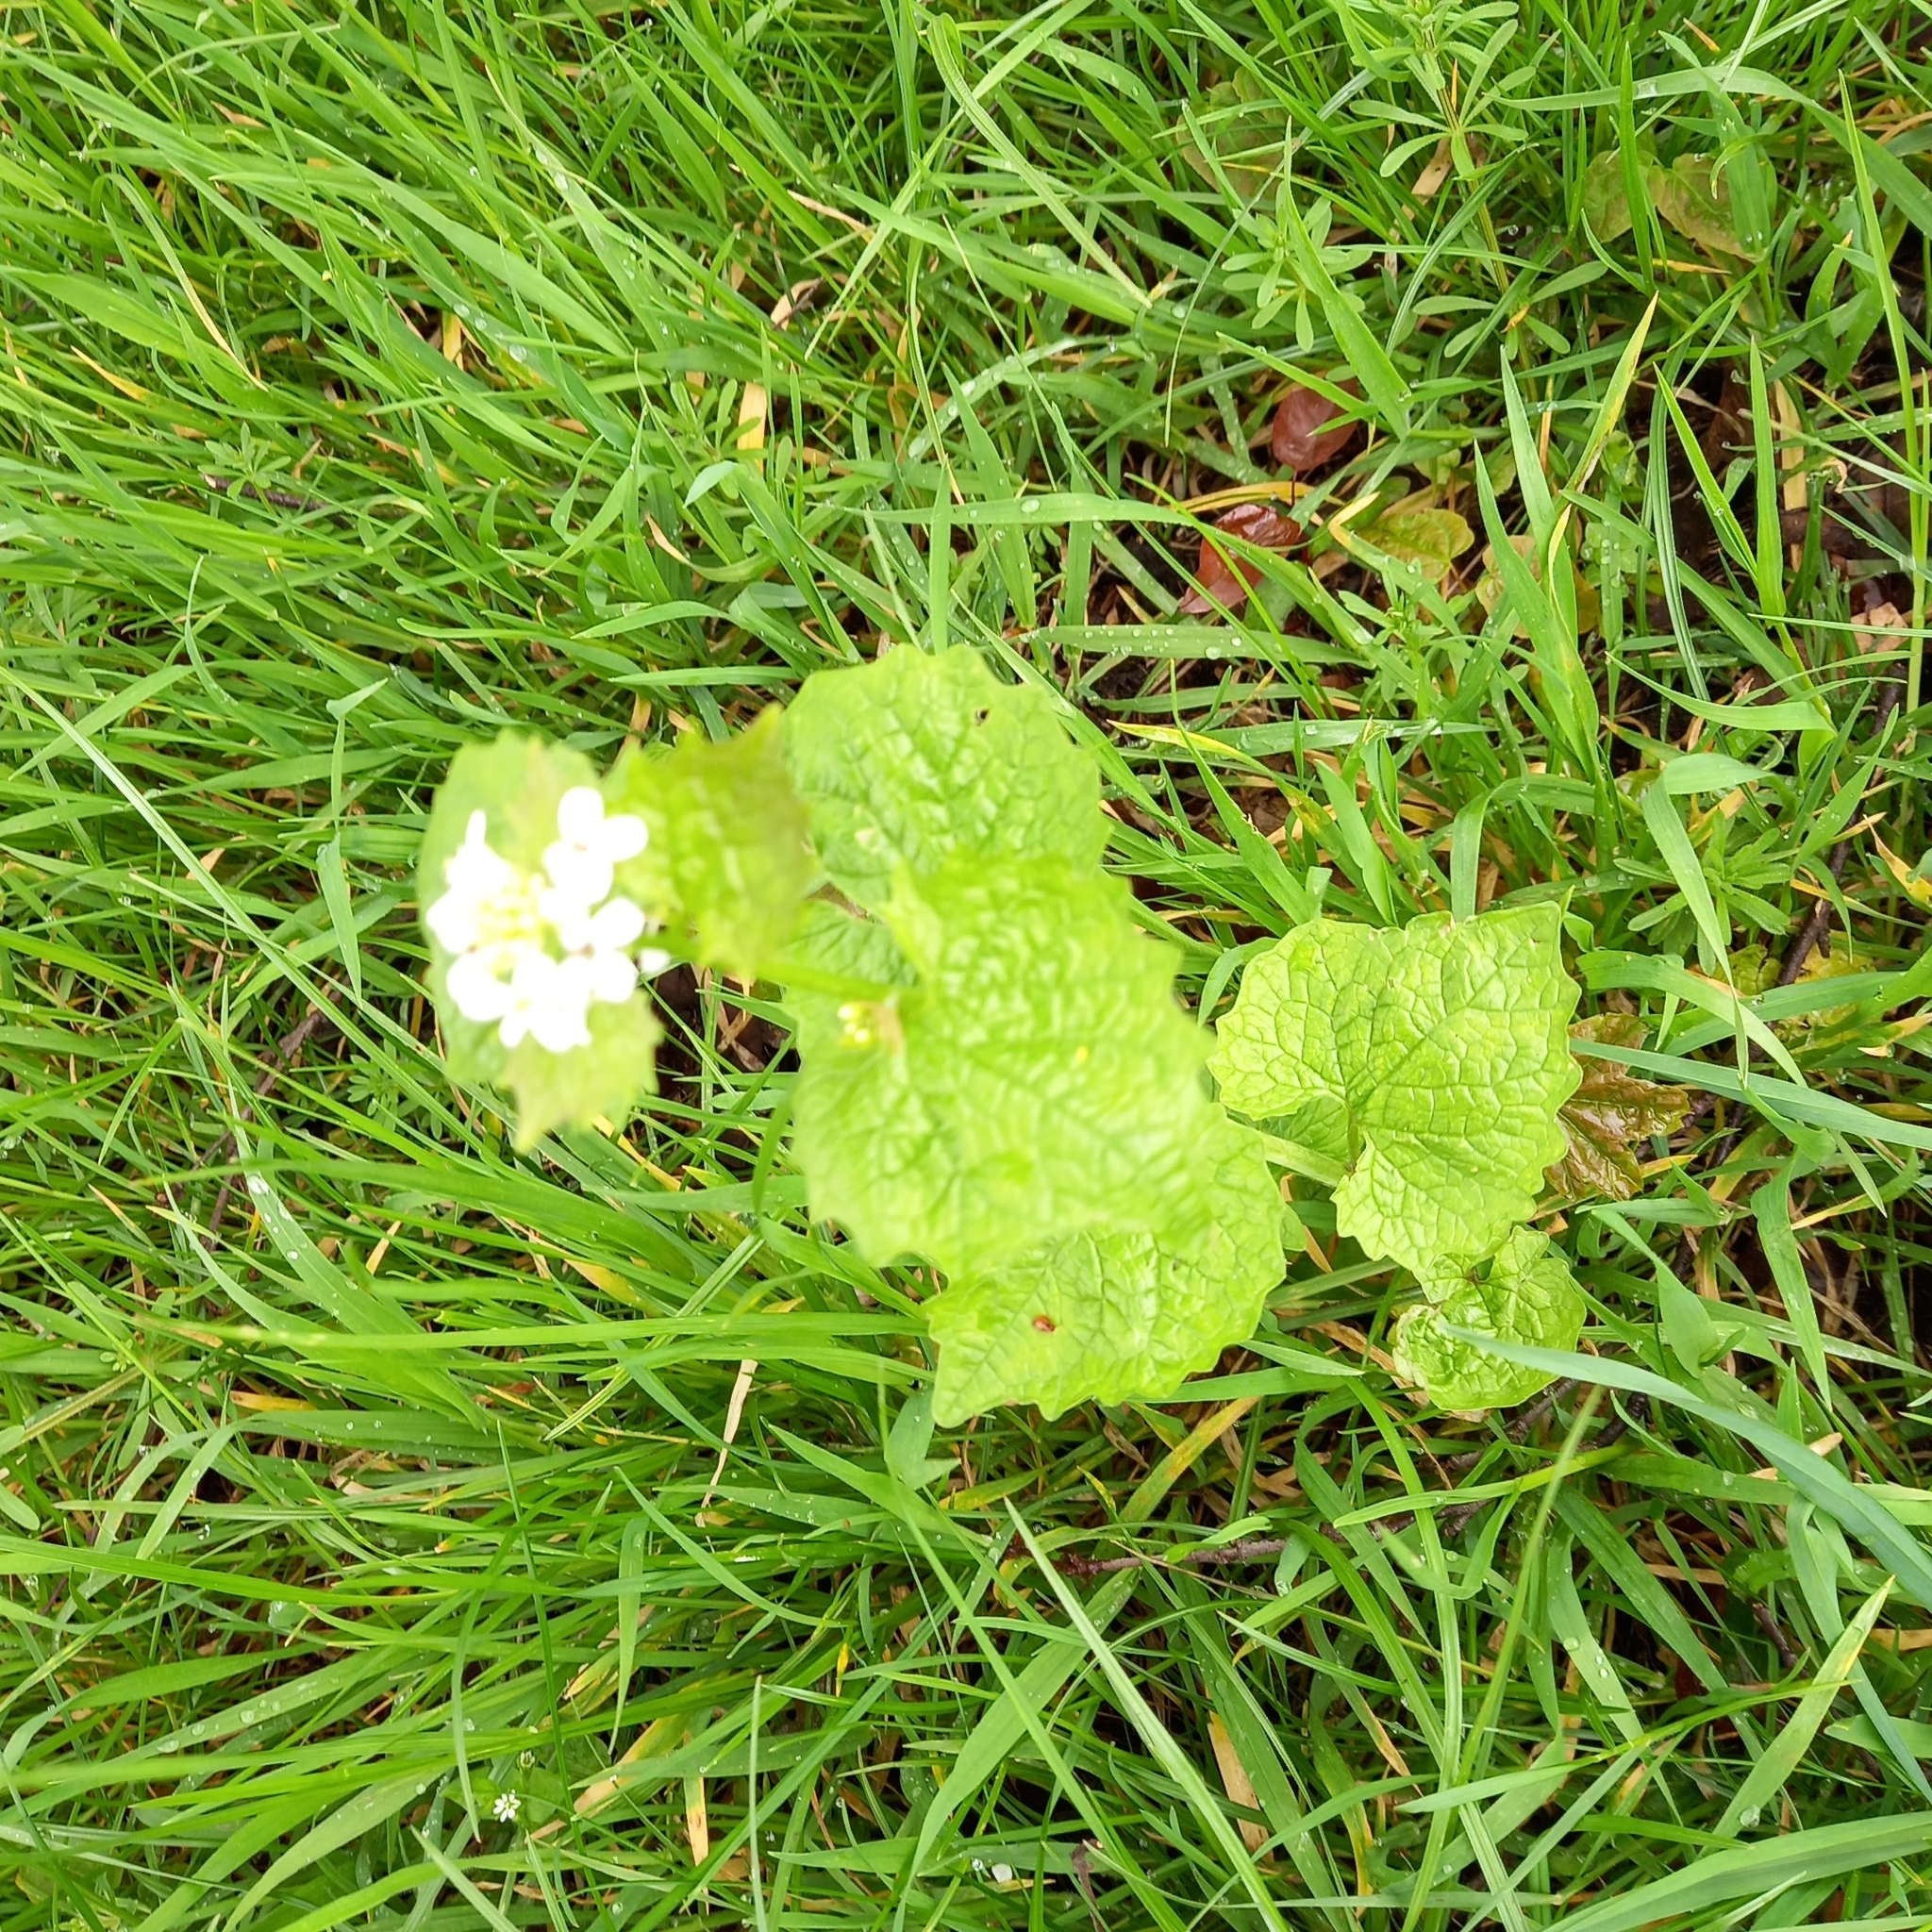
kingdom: Plantae
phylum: Tracheophyta
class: Magnoliopsida
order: Brassicales
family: Brassicaceae
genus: Alliaria
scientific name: Alliaria petiolata
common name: Garlic mustard
